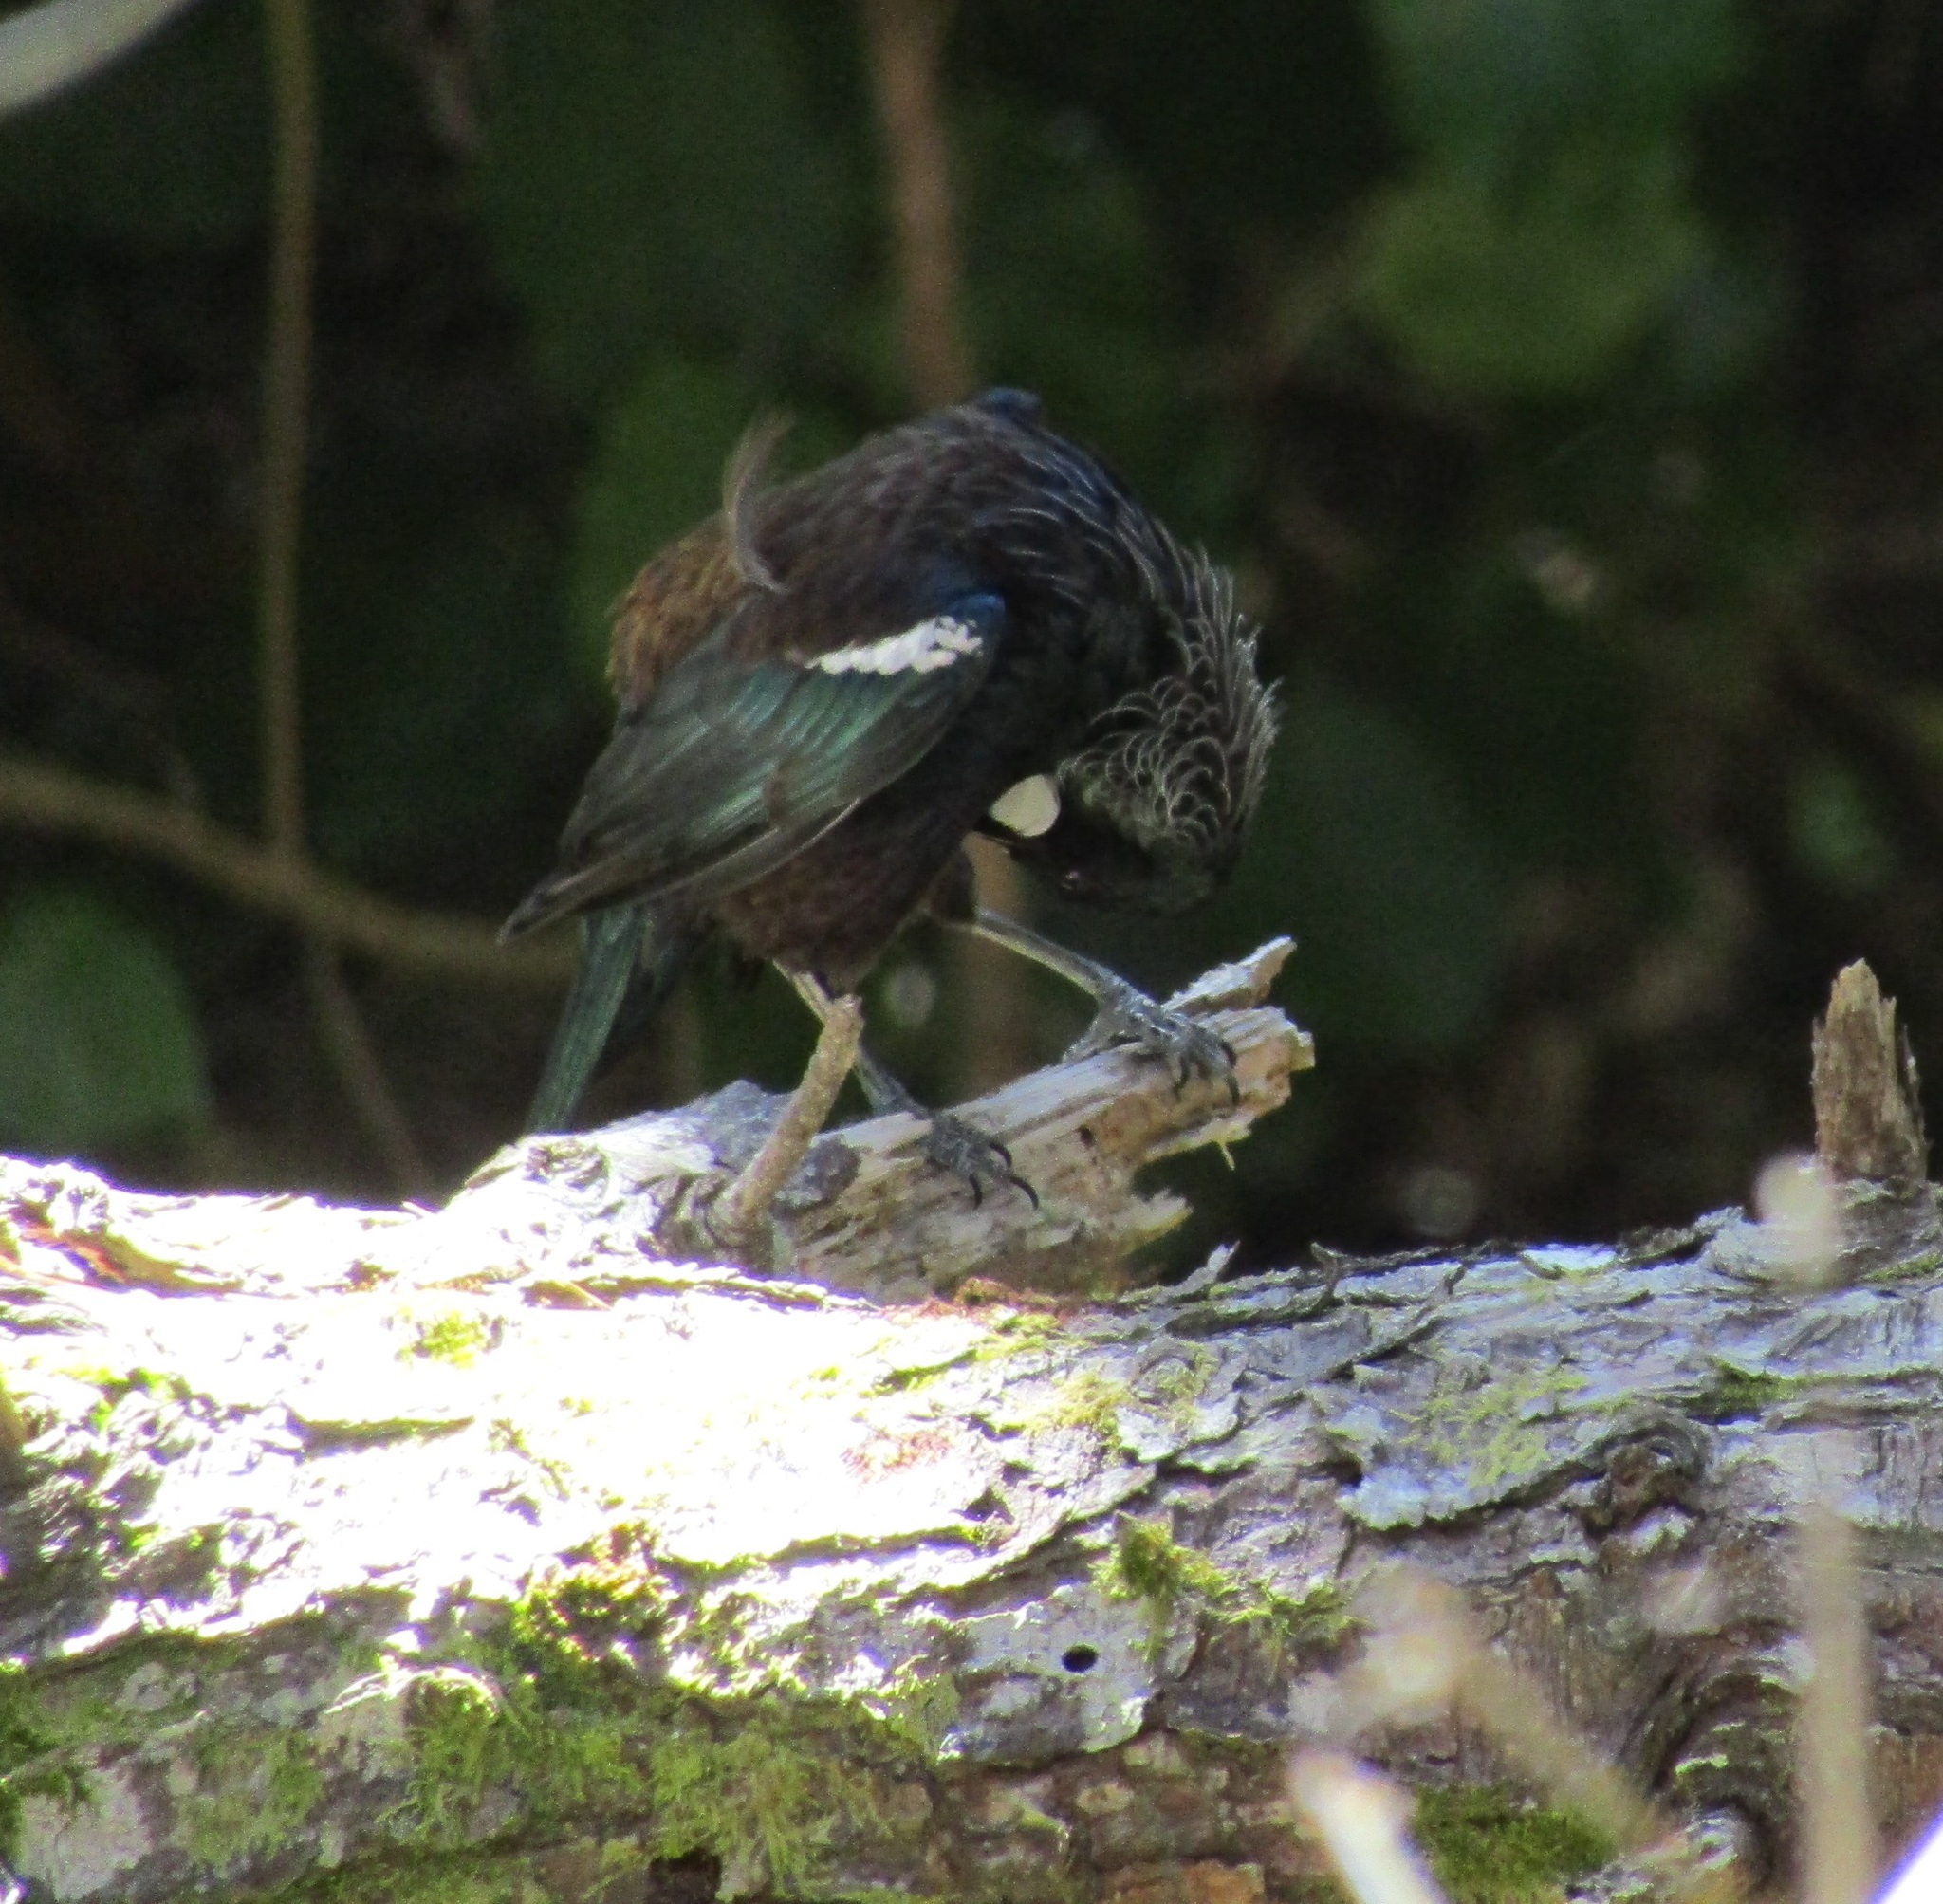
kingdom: Animalia
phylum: Chordata
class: Aves
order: Passeriformes
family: Meliphagidae
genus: Prosthemadera
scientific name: Prosthemadera novaeseelandiae
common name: Tui
